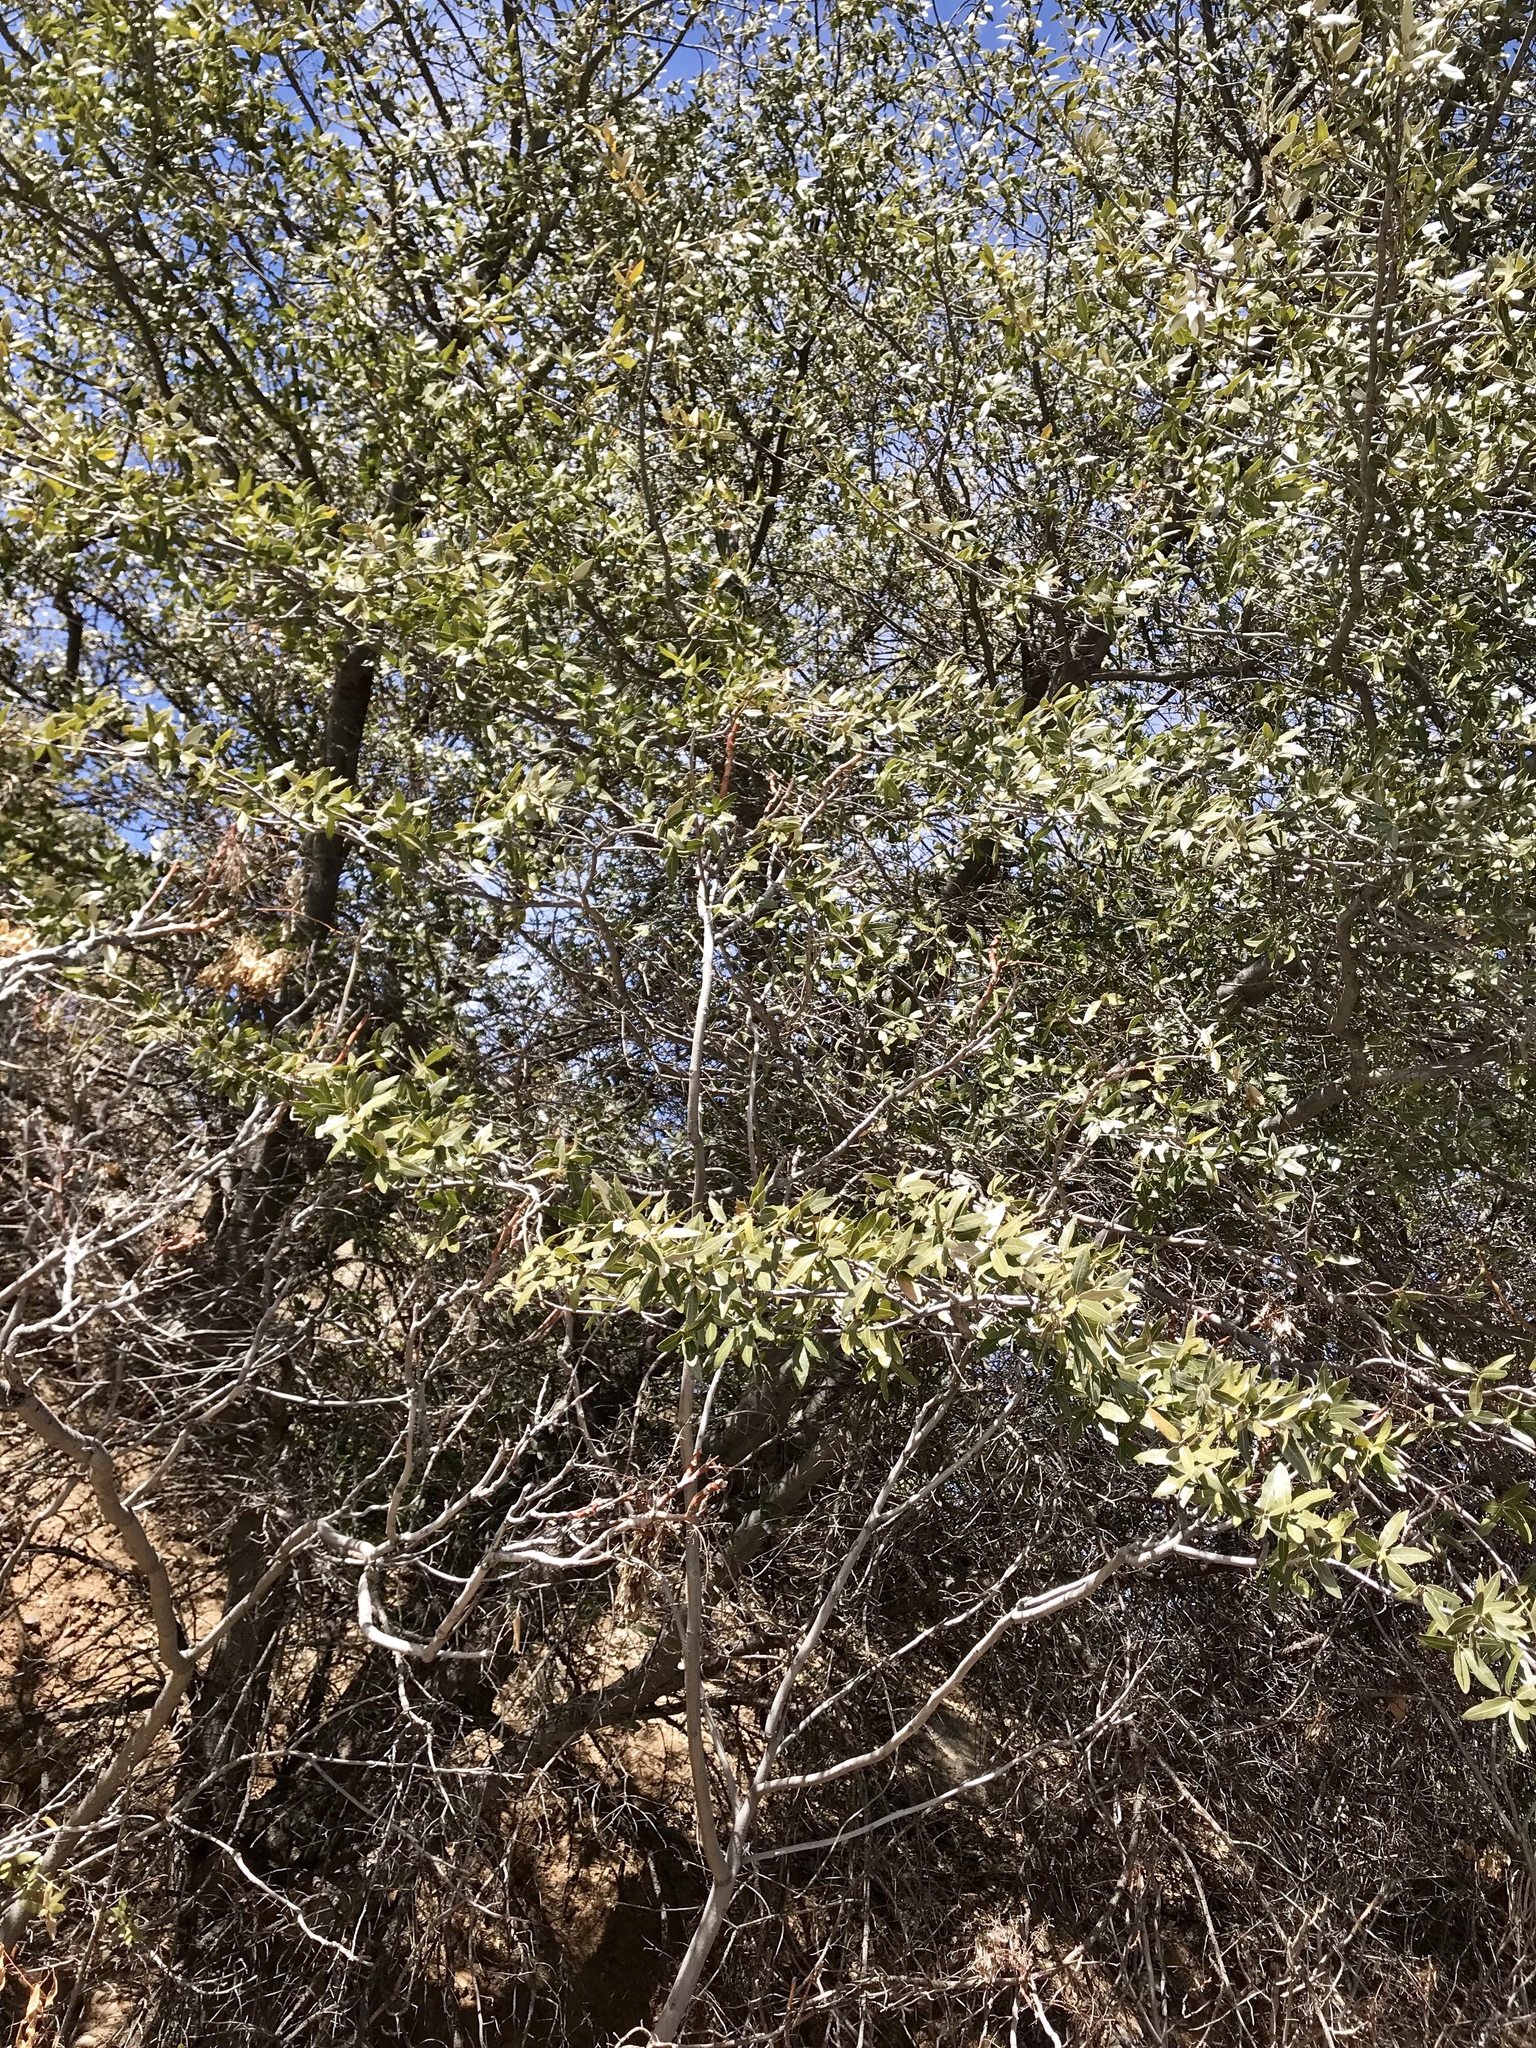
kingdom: Plantae
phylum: Tracheophyta
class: Magnoliopsida
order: Fagales
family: Fagaceae
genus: Quercus
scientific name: Quercus emoryi
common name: Emory oak
